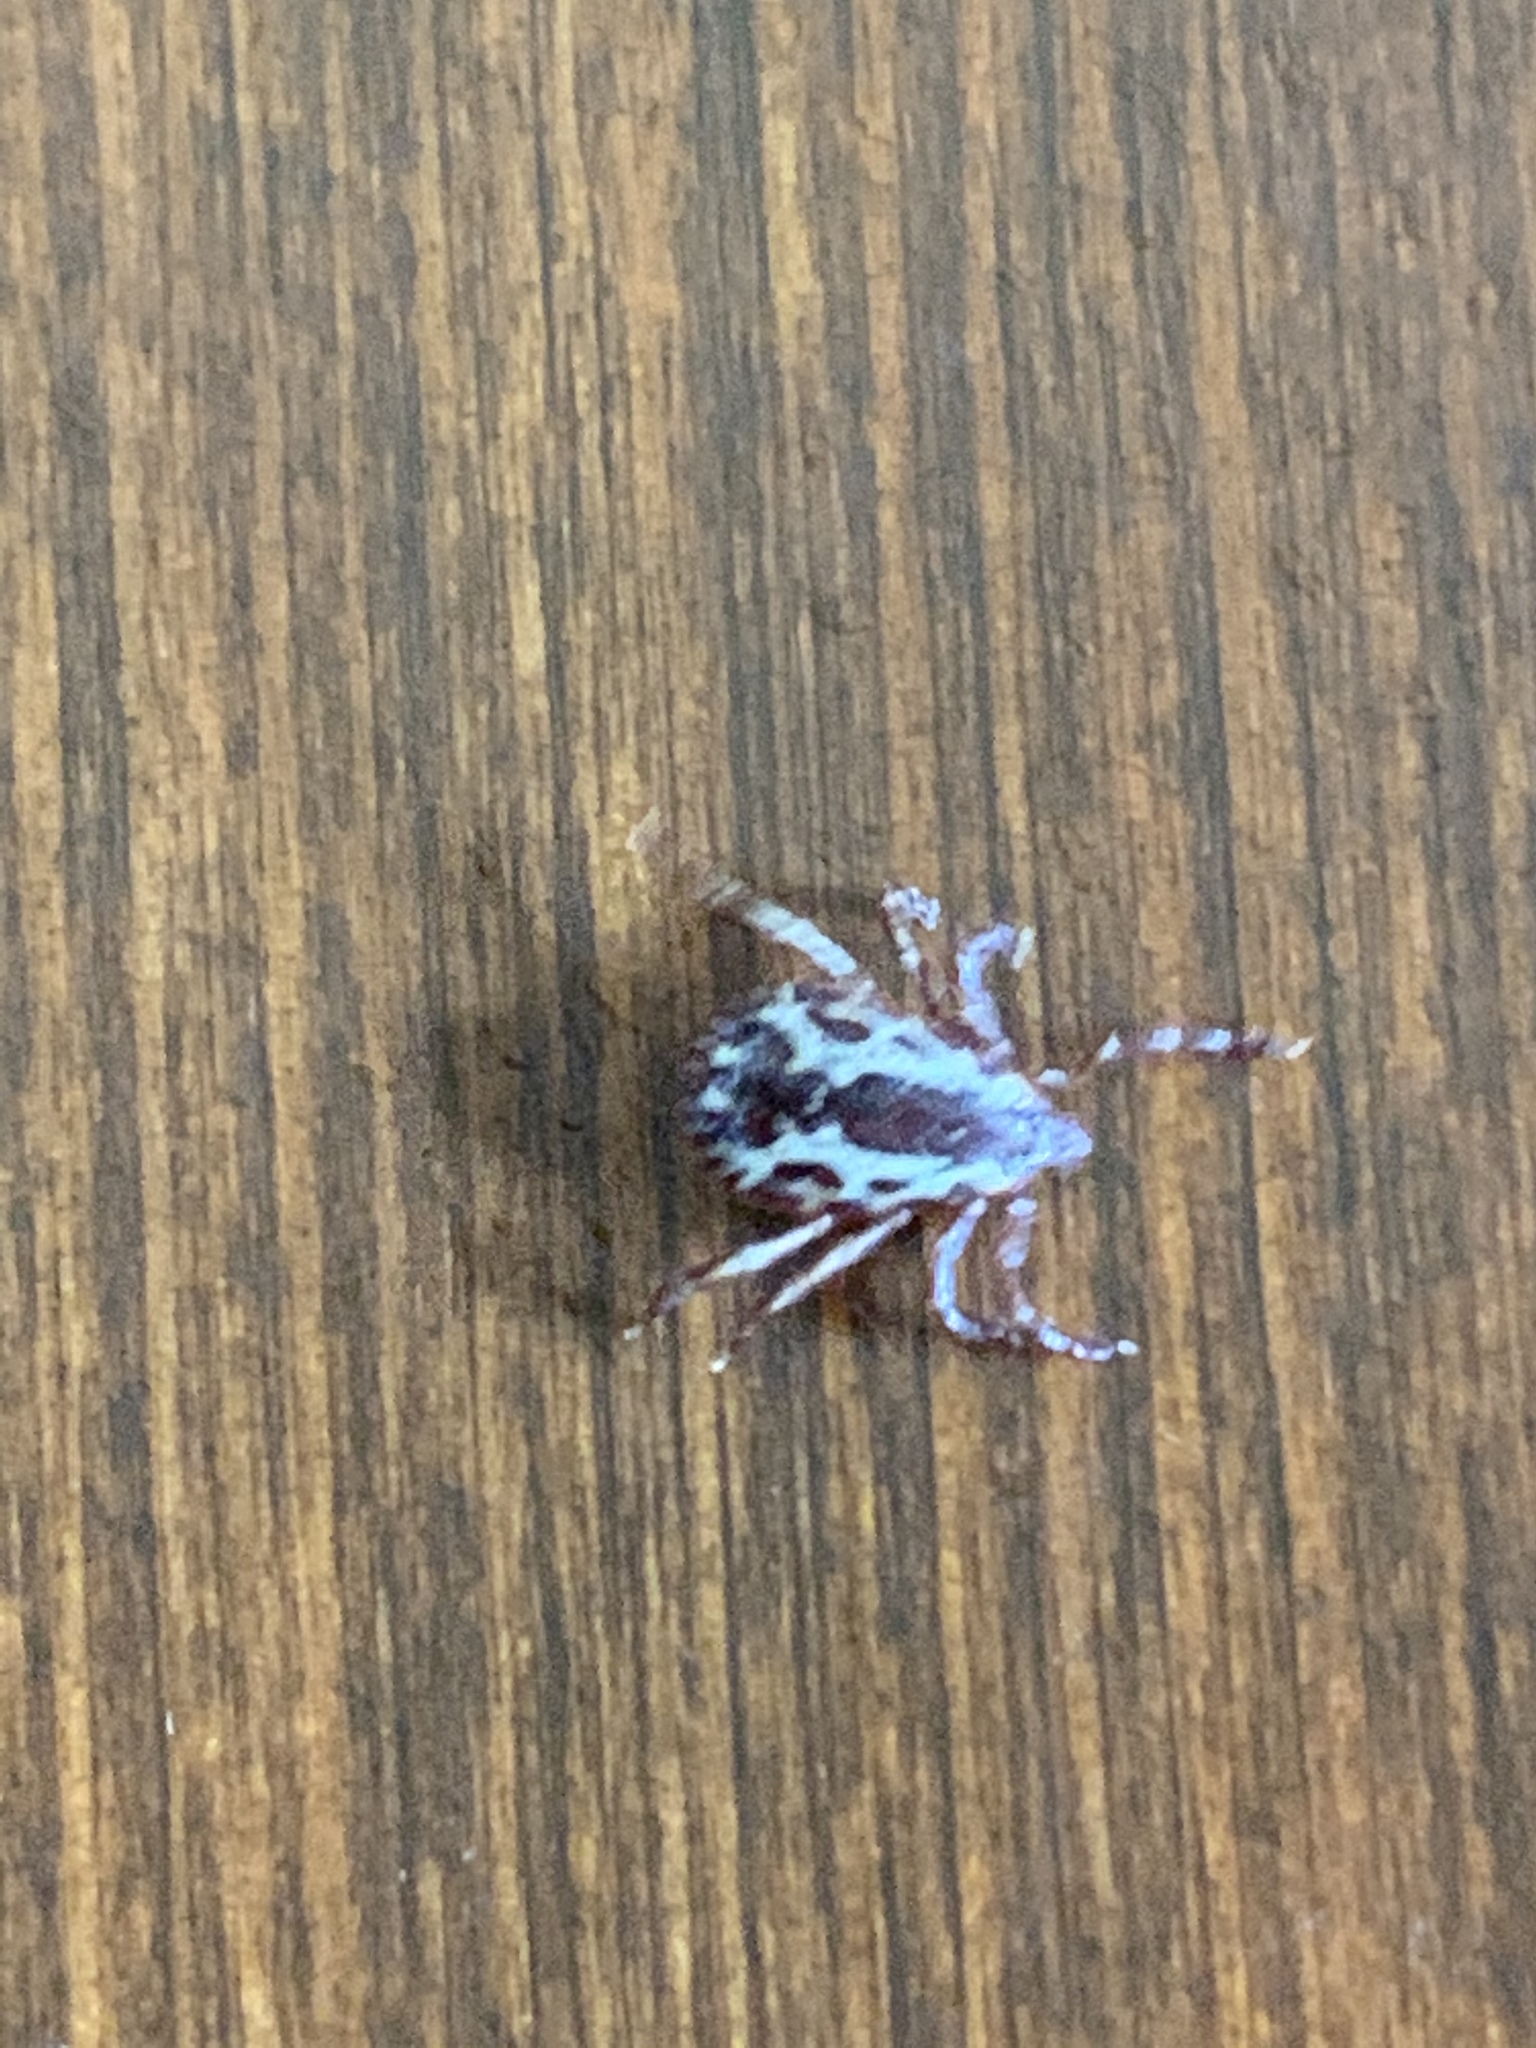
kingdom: Animalia
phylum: Arthropoda
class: Arachnida
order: Ixodida
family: Ixodidae
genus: Dermacentor
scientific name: Dermacentor variabilis
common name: American dog tick
